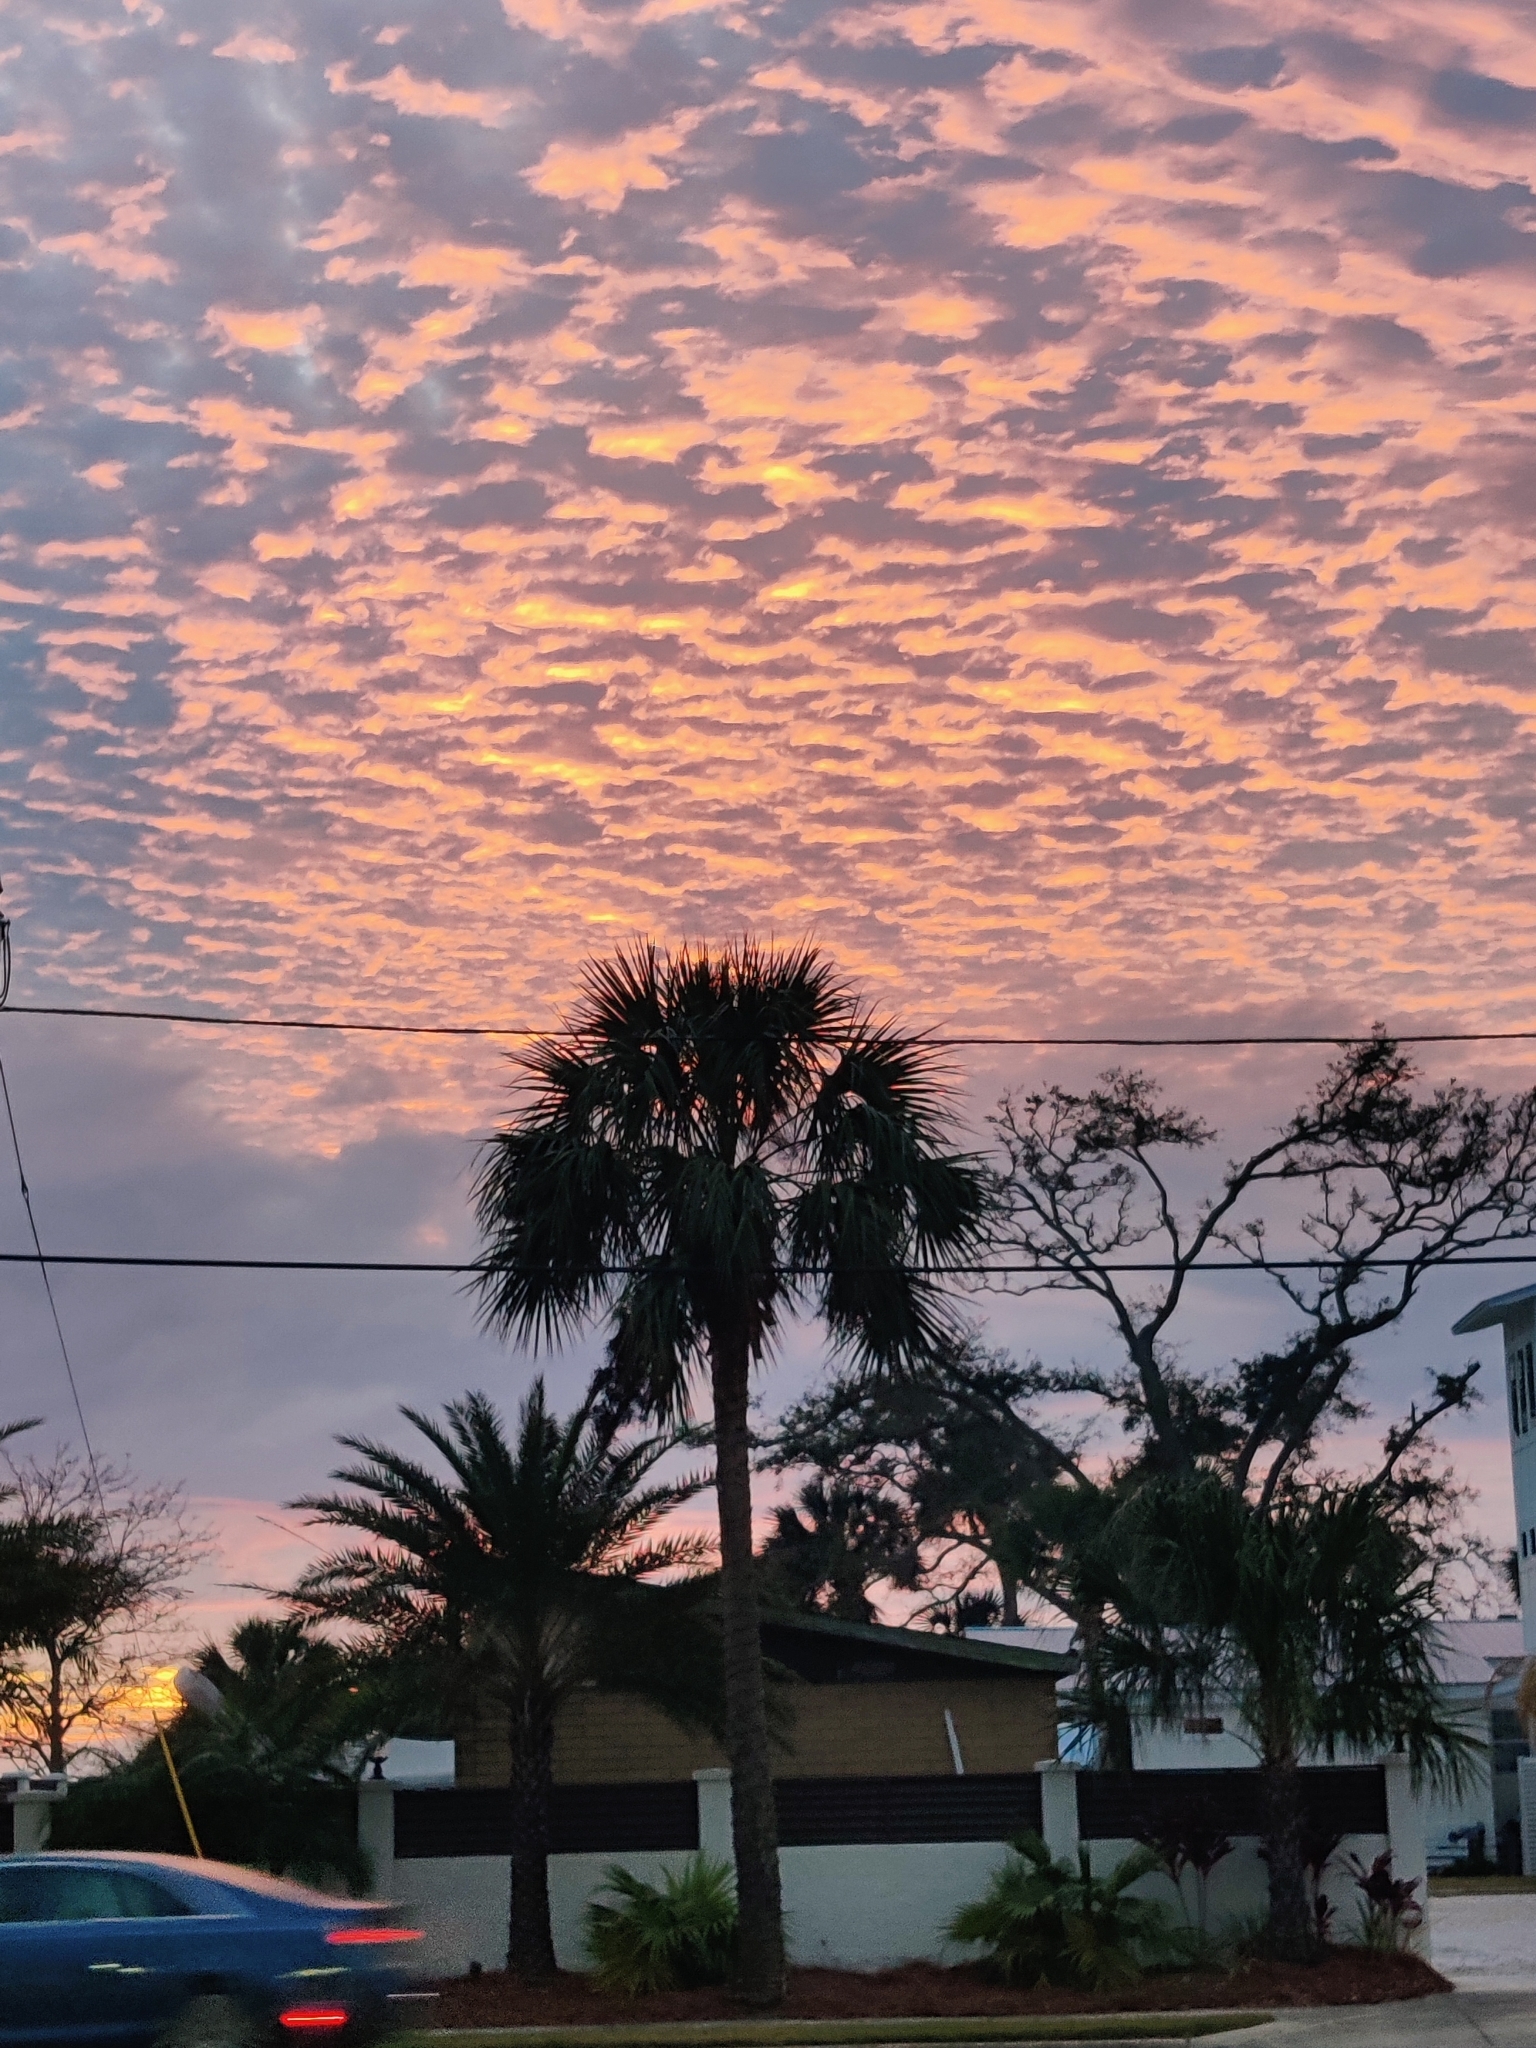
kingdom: Plantae
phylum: Tracheophyta
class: Liliopsida
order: Arecales
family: Arecaceae
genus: Sabal
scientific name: Sabal palmetto
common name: Blue palmetto
